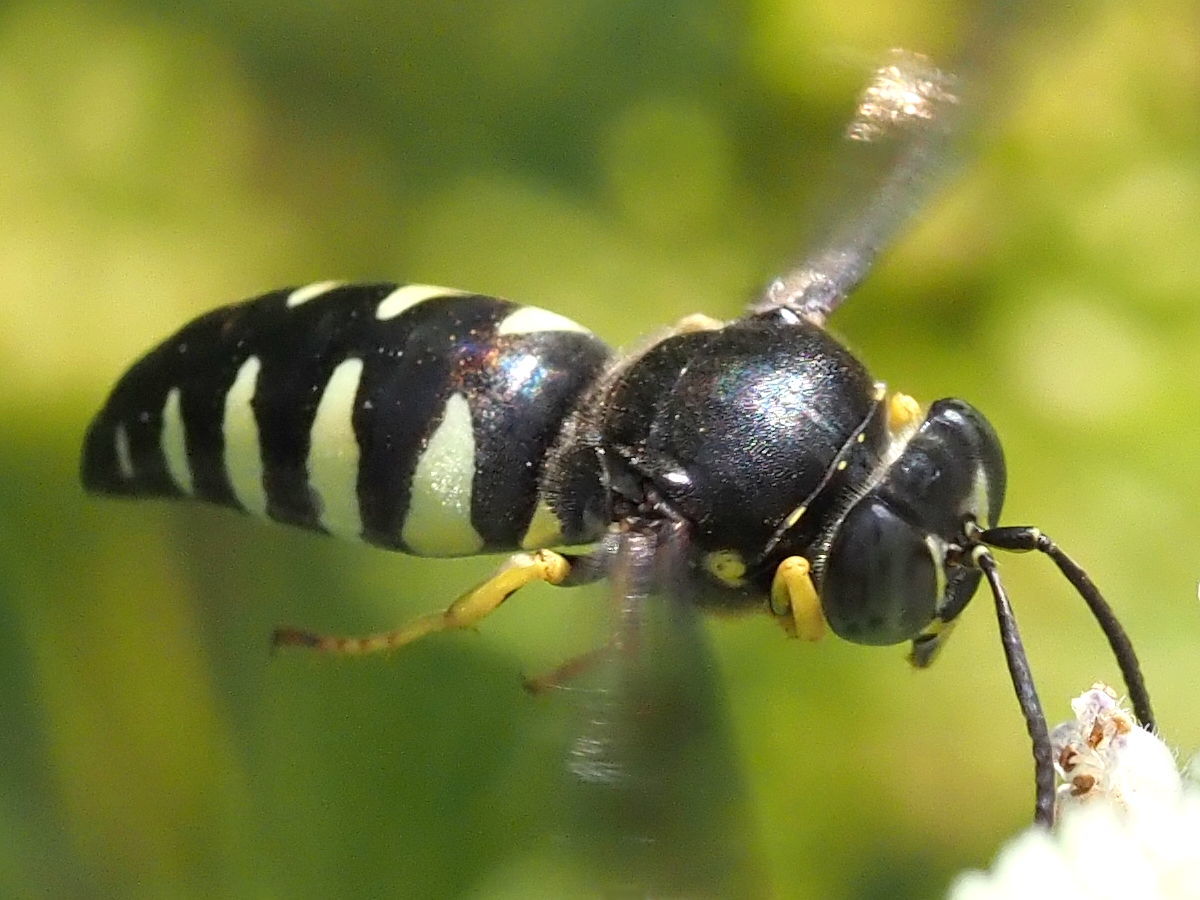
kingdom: Animalia
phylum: Arthropoda
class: Insecta
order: Hymenoptera
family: Crabronidae
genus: Bicyrtes
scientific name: Bicyrtes quadrifasciatus
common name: Four-banded stink bug hunter wasp
